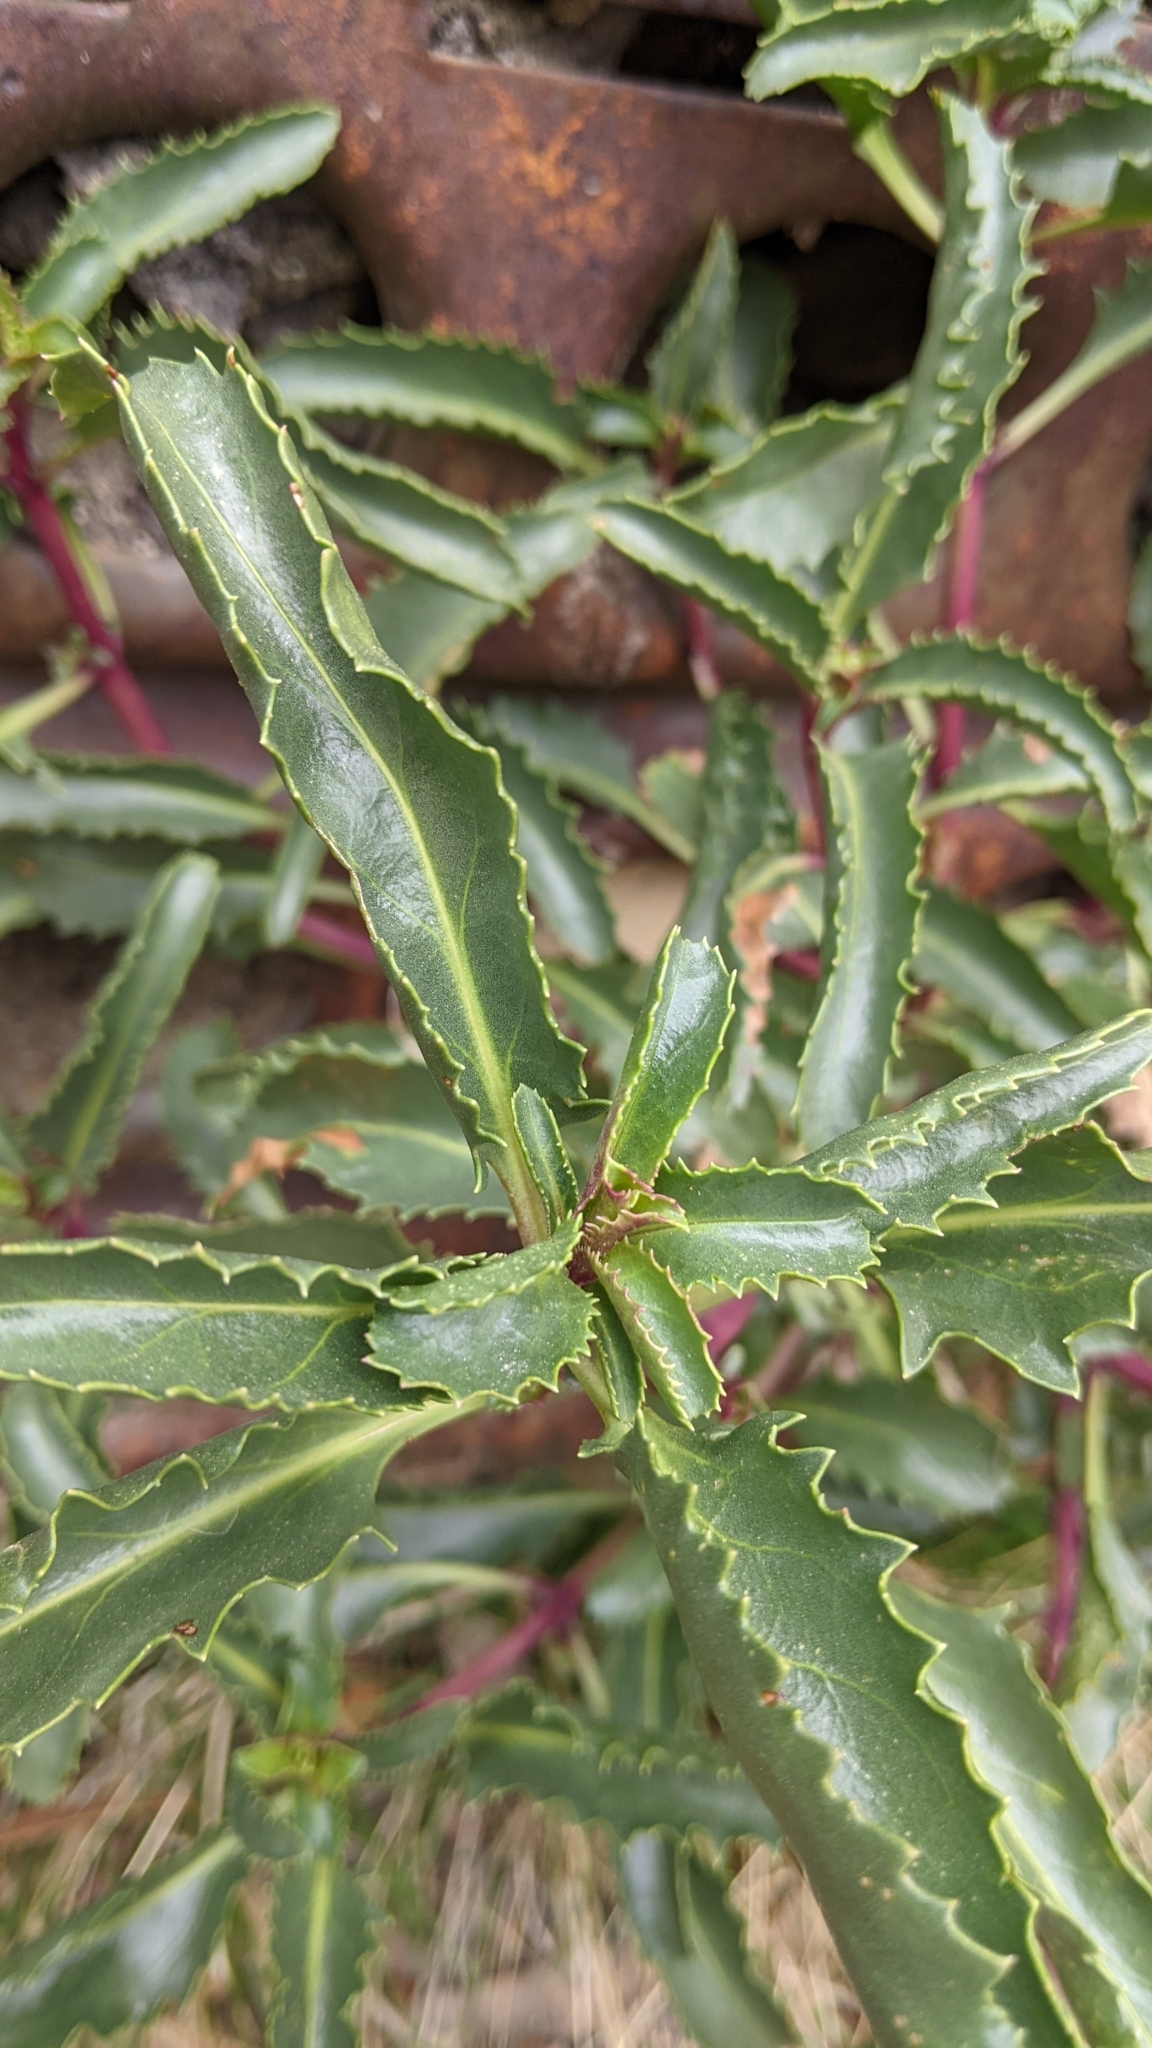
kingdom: Plantae
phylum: Tracheophyta
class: Magnoliopsida
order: Lamiales
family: Plantaginaceae
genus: Penstemon
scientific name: Penstemon grinnellii
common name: Grinnell's beardtongue
